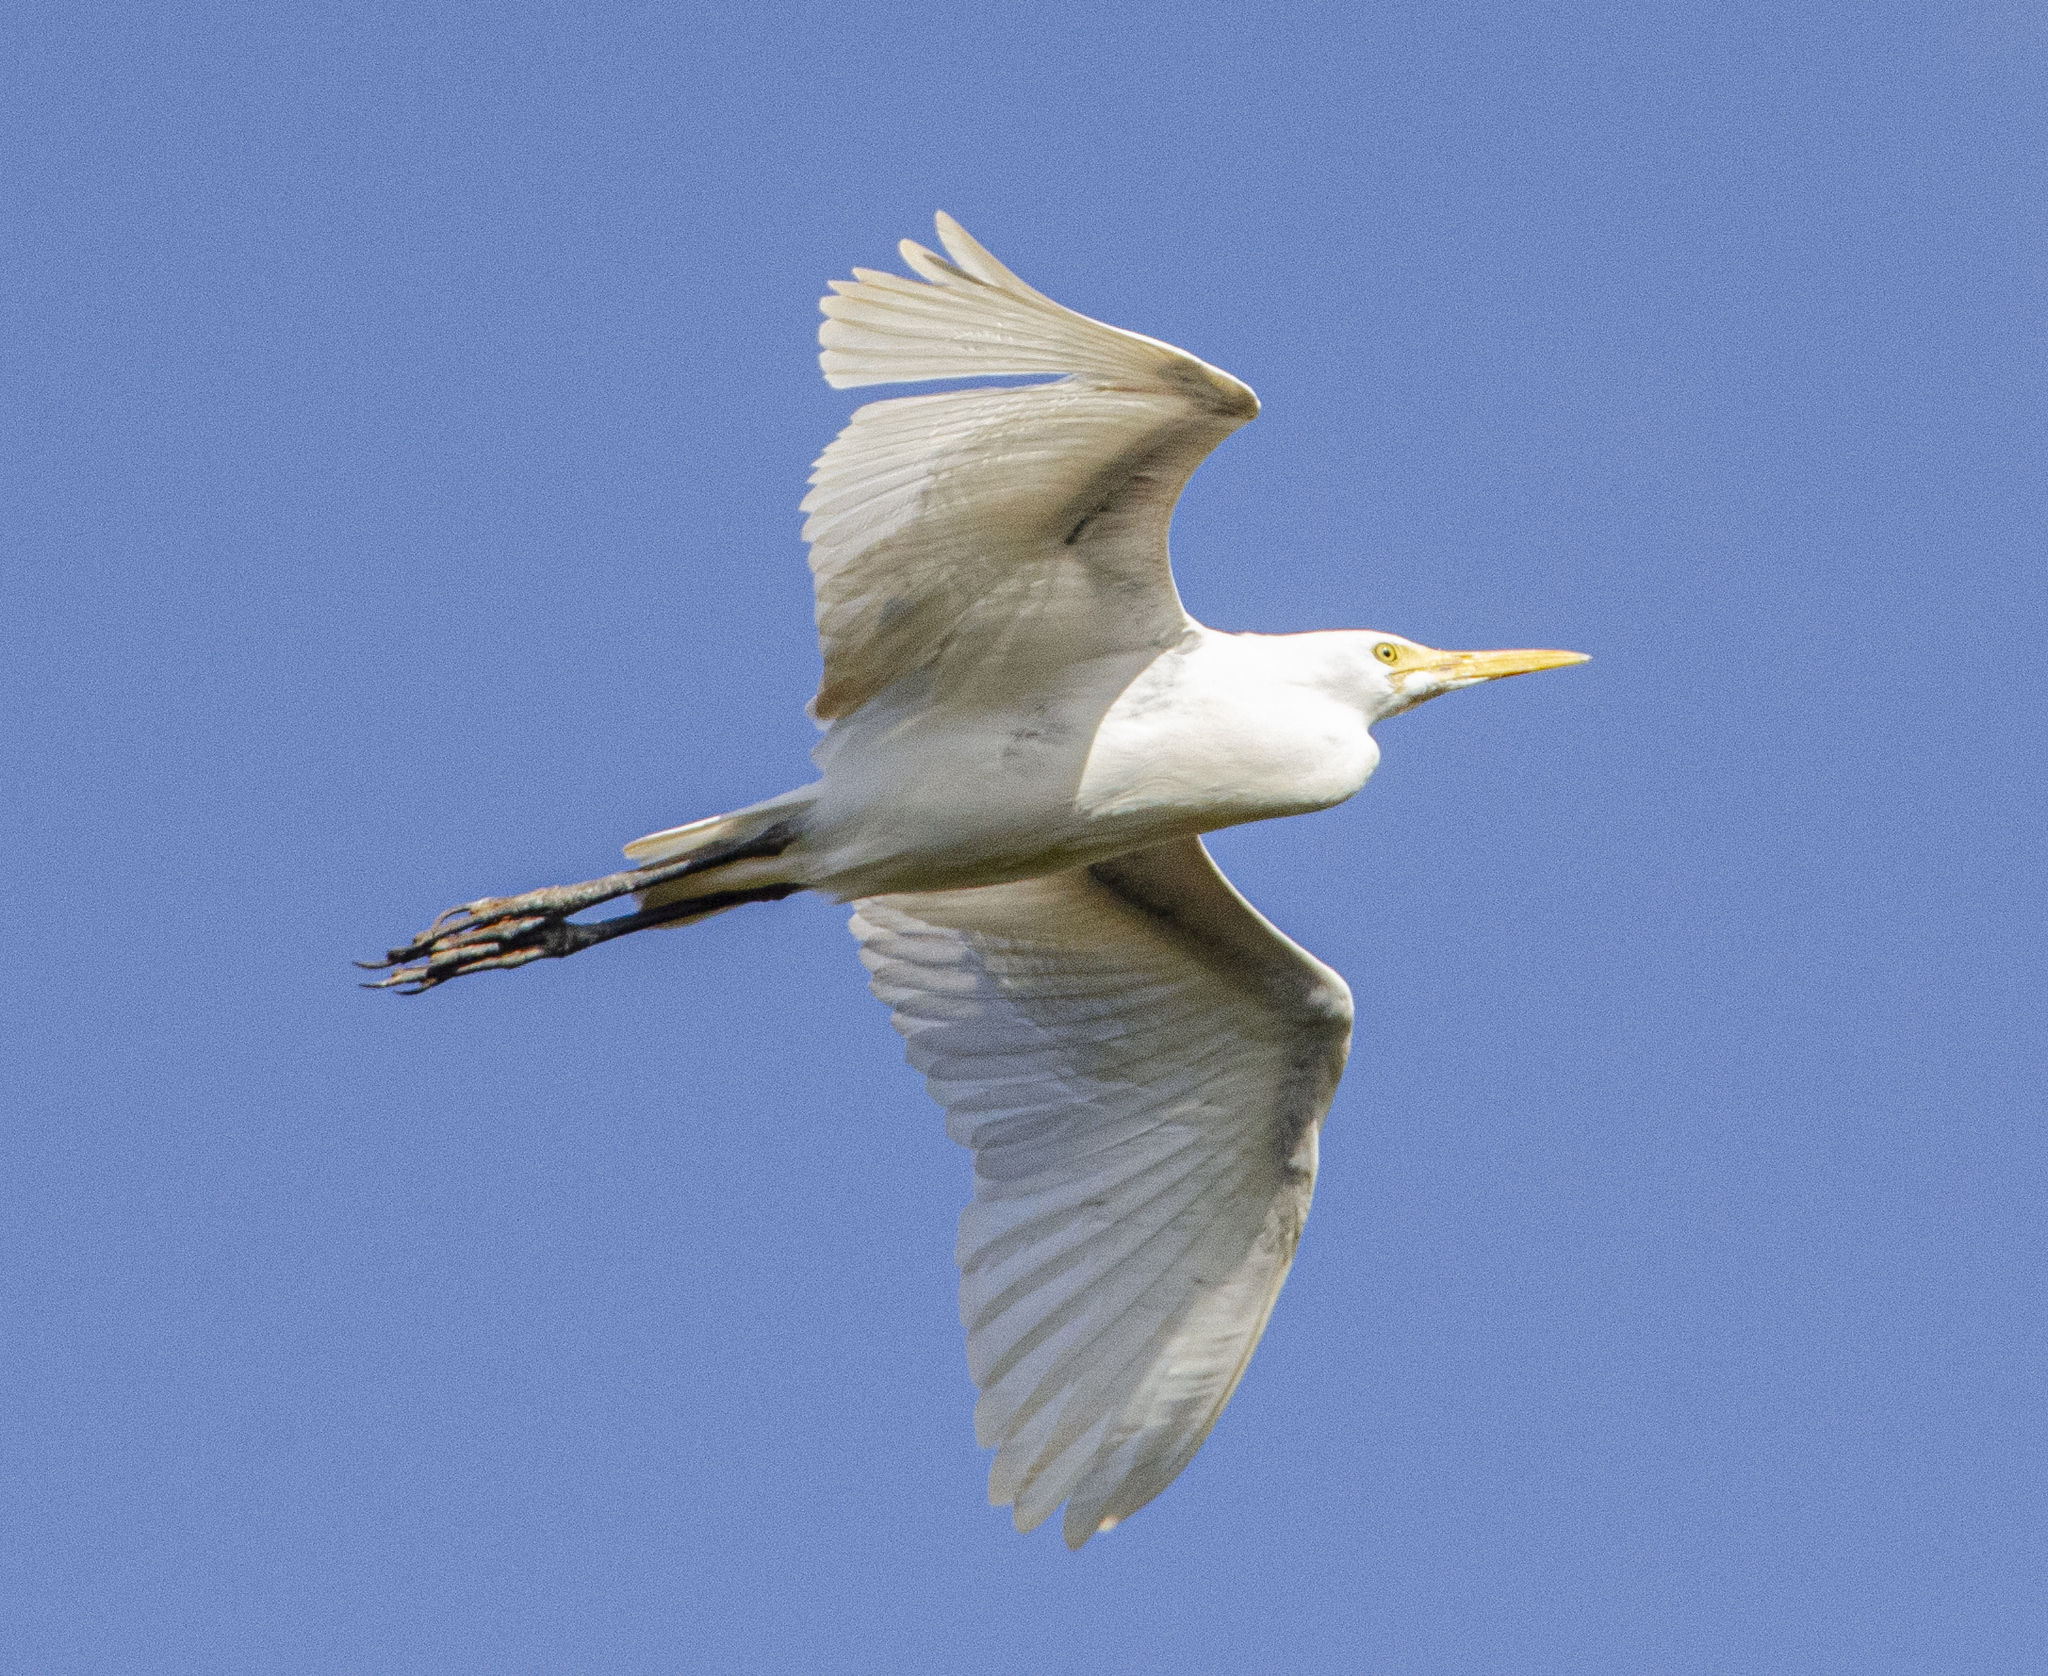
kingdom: Animalia
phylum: Chordata
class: Aves
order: Pelecaniformes
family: Ardeidae
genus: Bubulcus
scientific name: Bubulcus ibis
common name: Cattle egret
